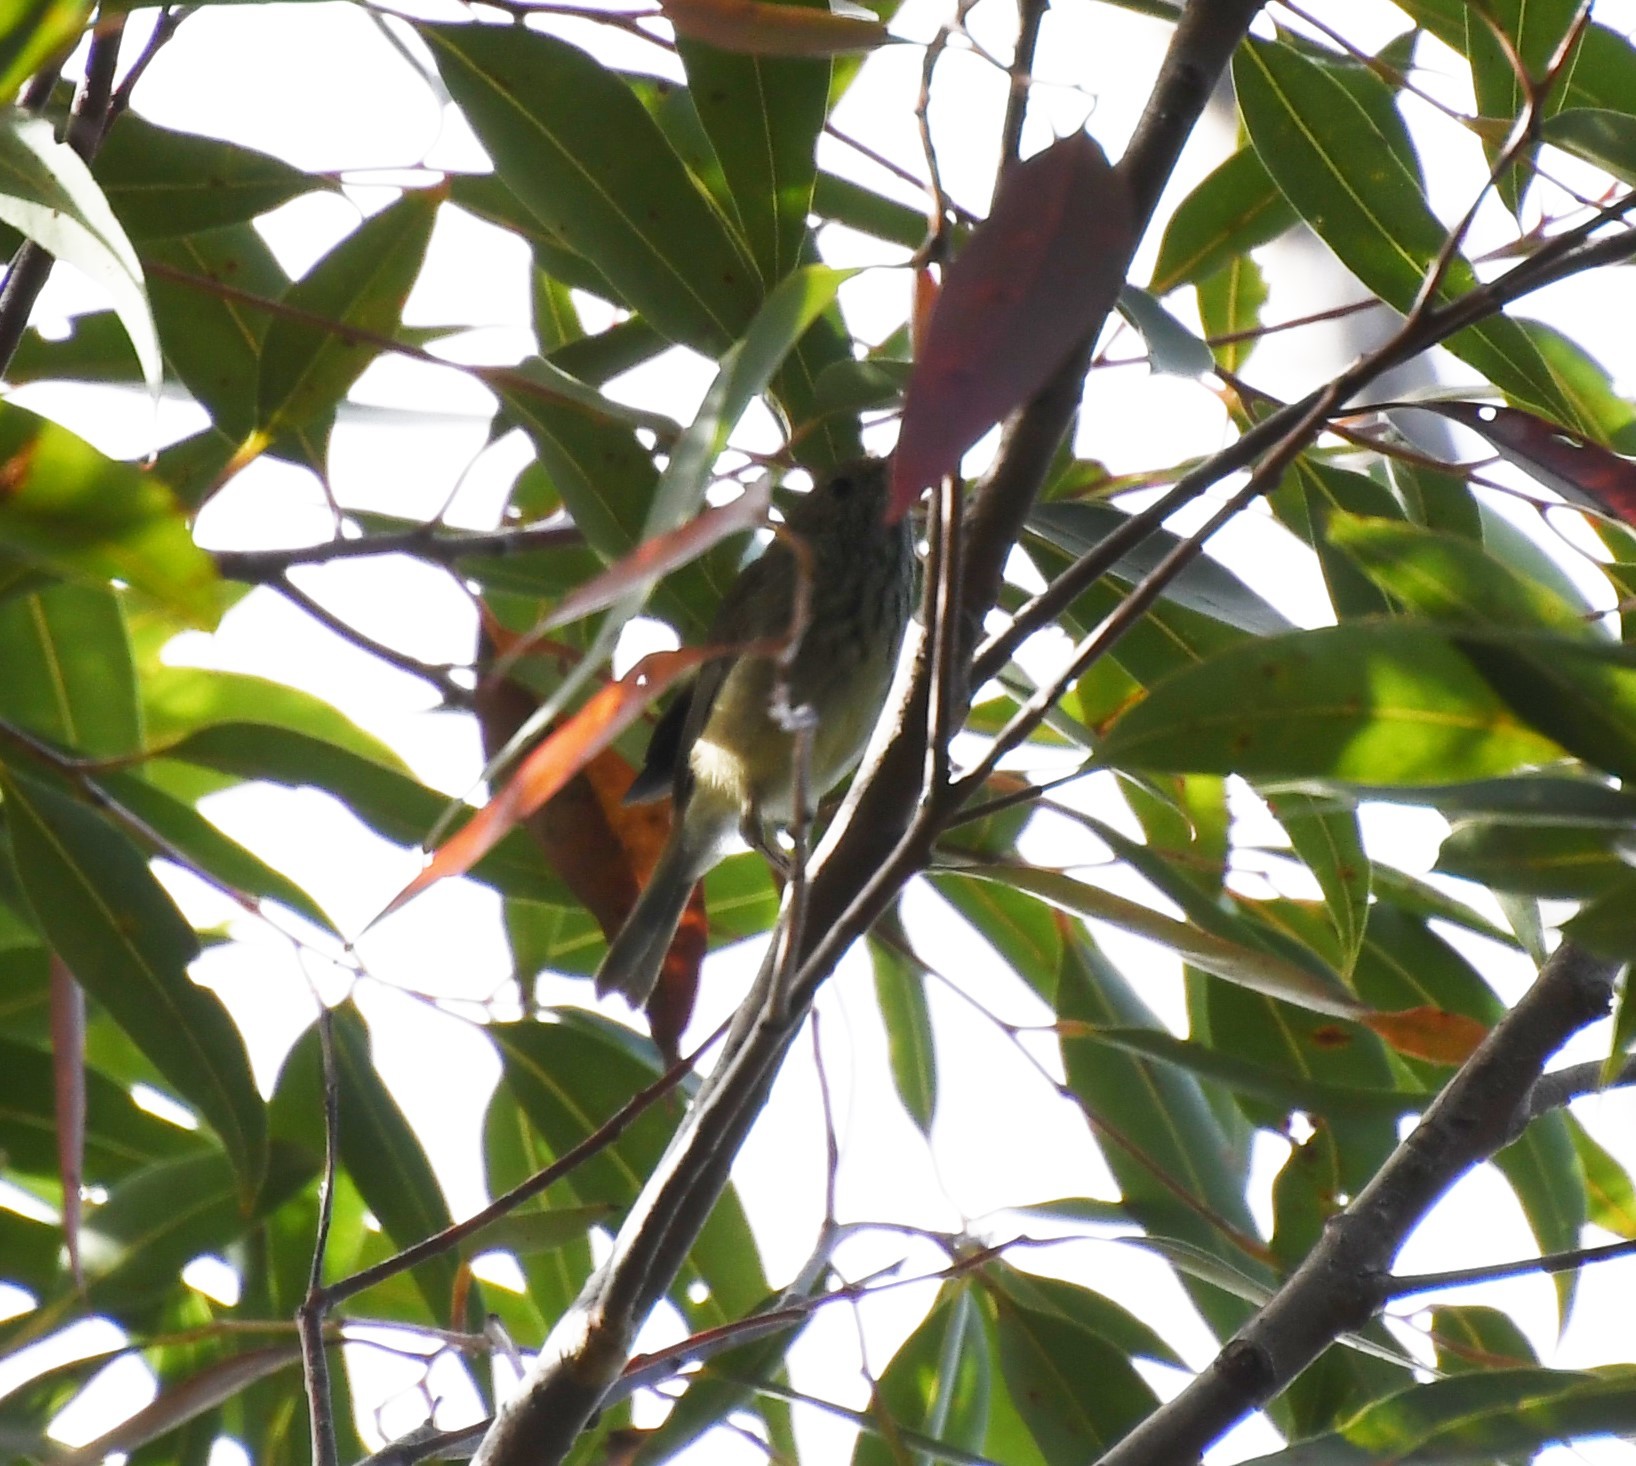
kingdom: Animalia
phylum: Chordata
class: Aves
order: Passeriformes
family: Acanthizidae
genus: Acanthiza
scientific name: Acanthiza pusilla
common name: Brown thornbill
